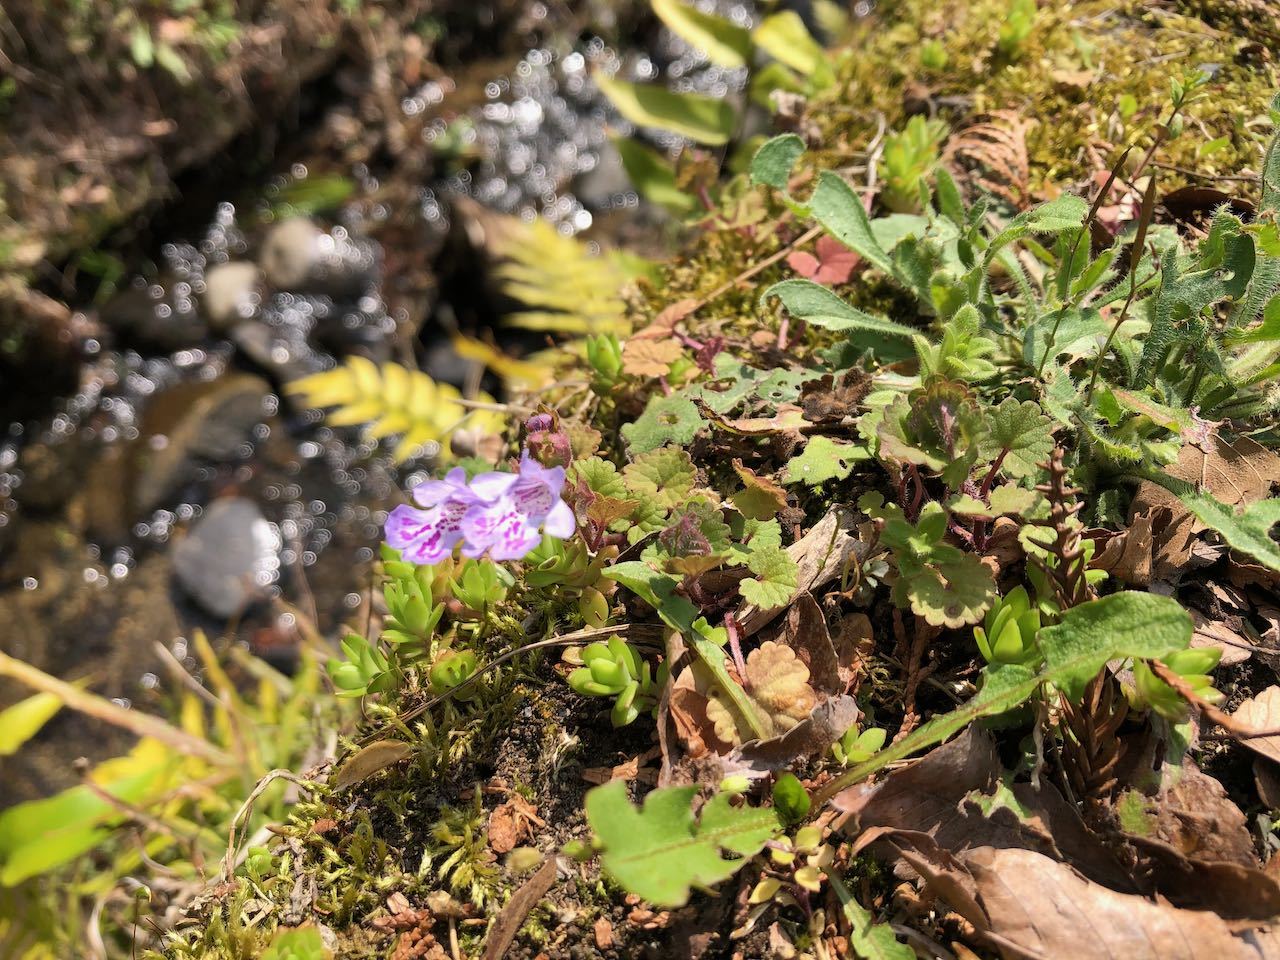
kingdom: Plantae
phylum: Tracheophyta
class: Magnoliopsida
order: Lamiales
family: Lamiaceae
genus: Glechoma
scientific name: Glechoma grandis
